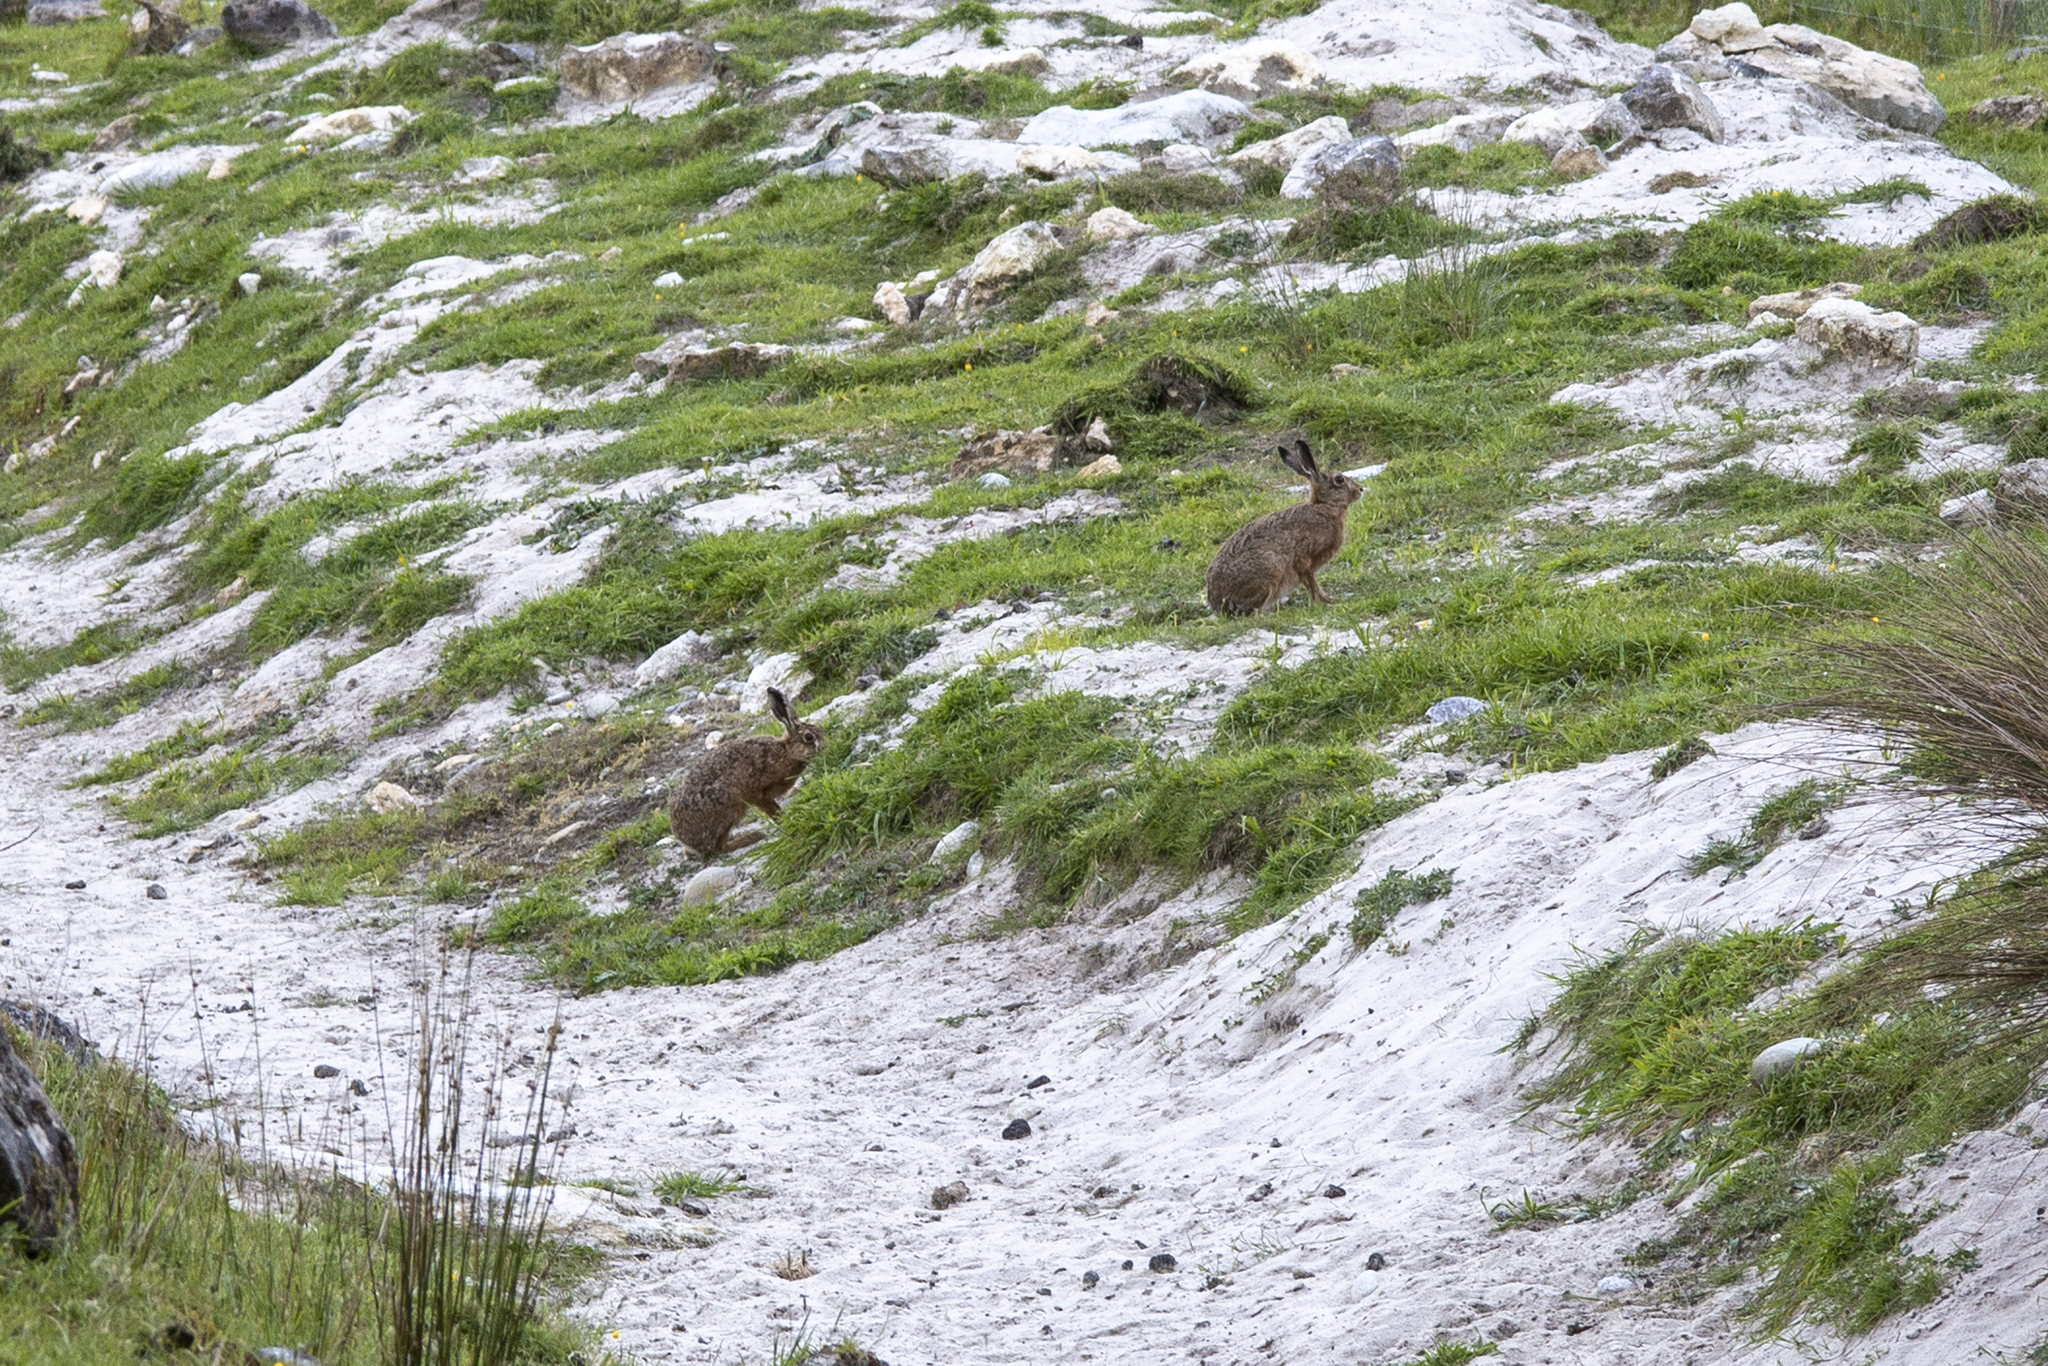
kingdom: Animalia
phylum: Chordata
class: Mammalia
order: Lagomorpha
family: Leporidae
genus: Lepus
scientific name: Lepus europaeus
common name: European hare
